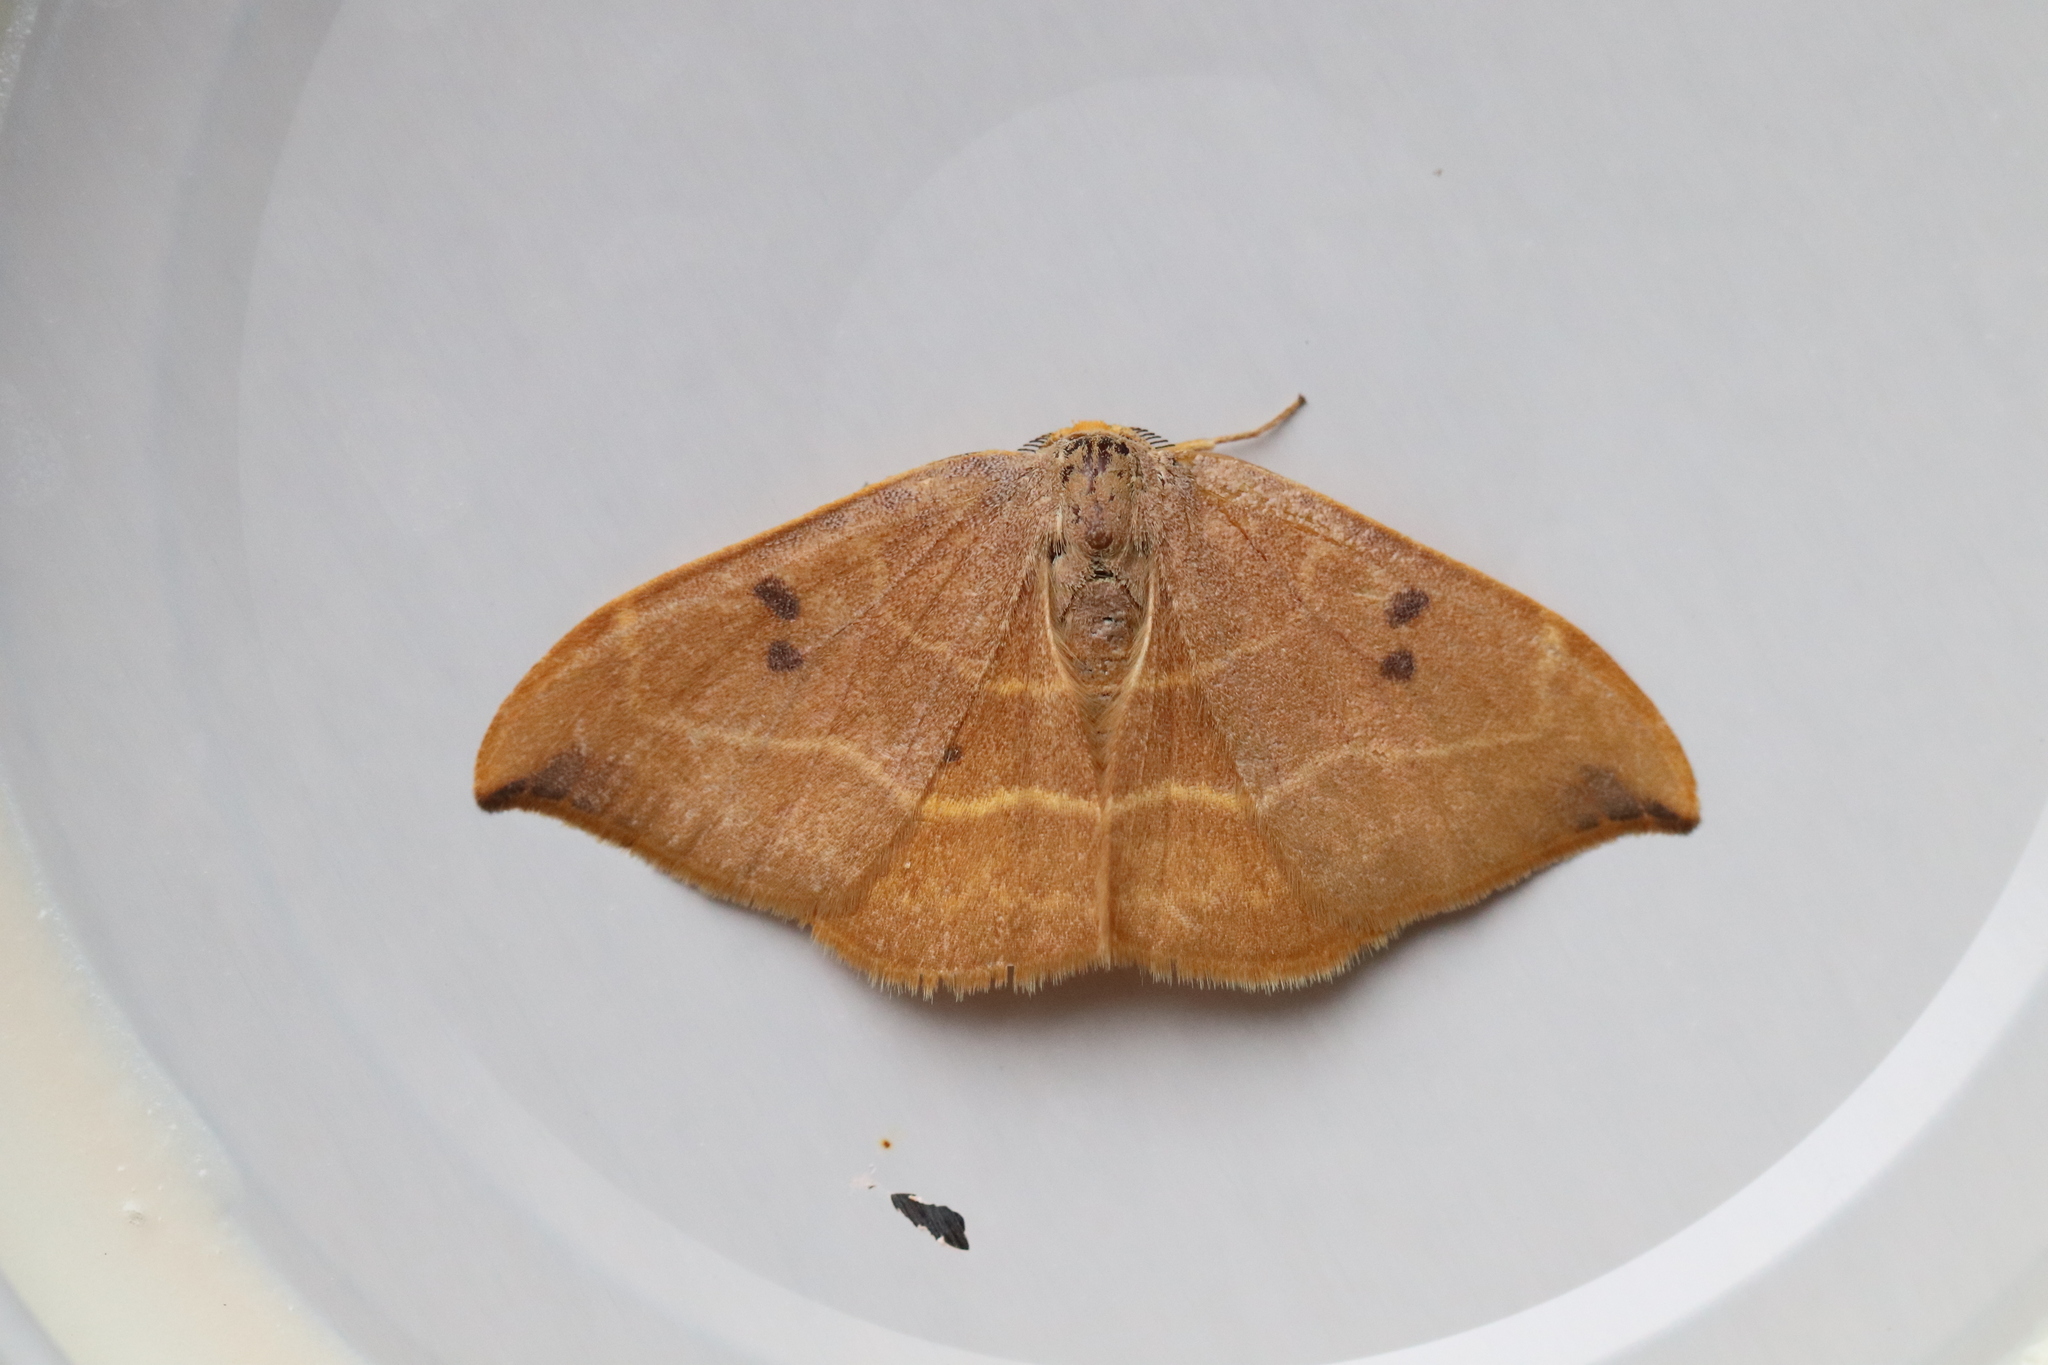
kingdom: Animalia
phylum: Arthropoda
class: Insecta
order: Lepidoptera
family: Drepanidae
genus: Watsonalla
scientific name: Watsonalla binaria
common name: Oak hook-tip
